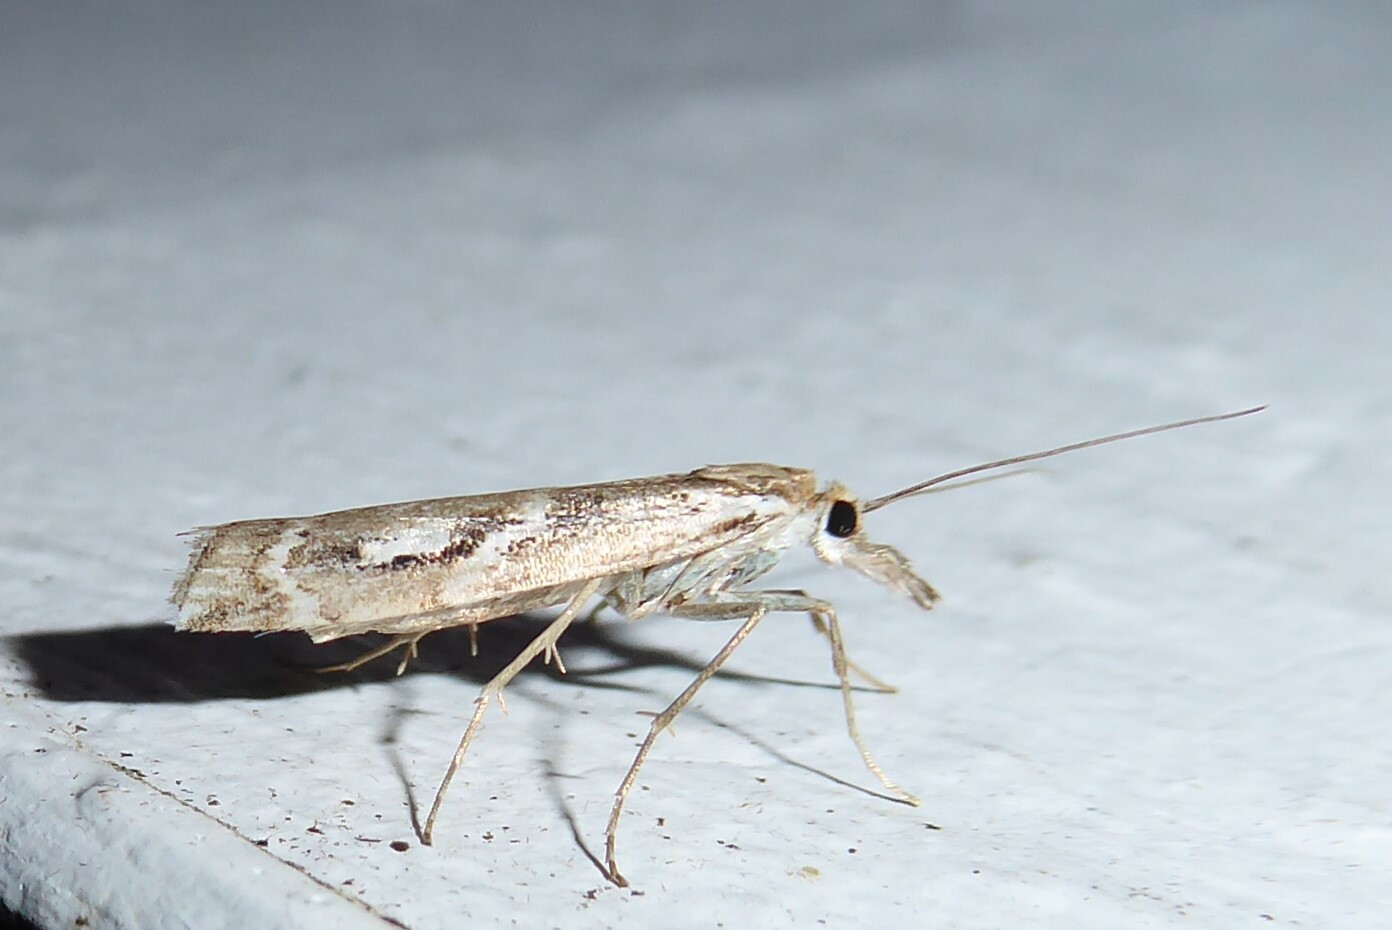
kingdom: Animalia
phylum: Arthropoda
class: Insecta
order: Lepidoptera
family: Crambidae
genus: Orocrambus
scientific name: Orocrambus vulgaris
